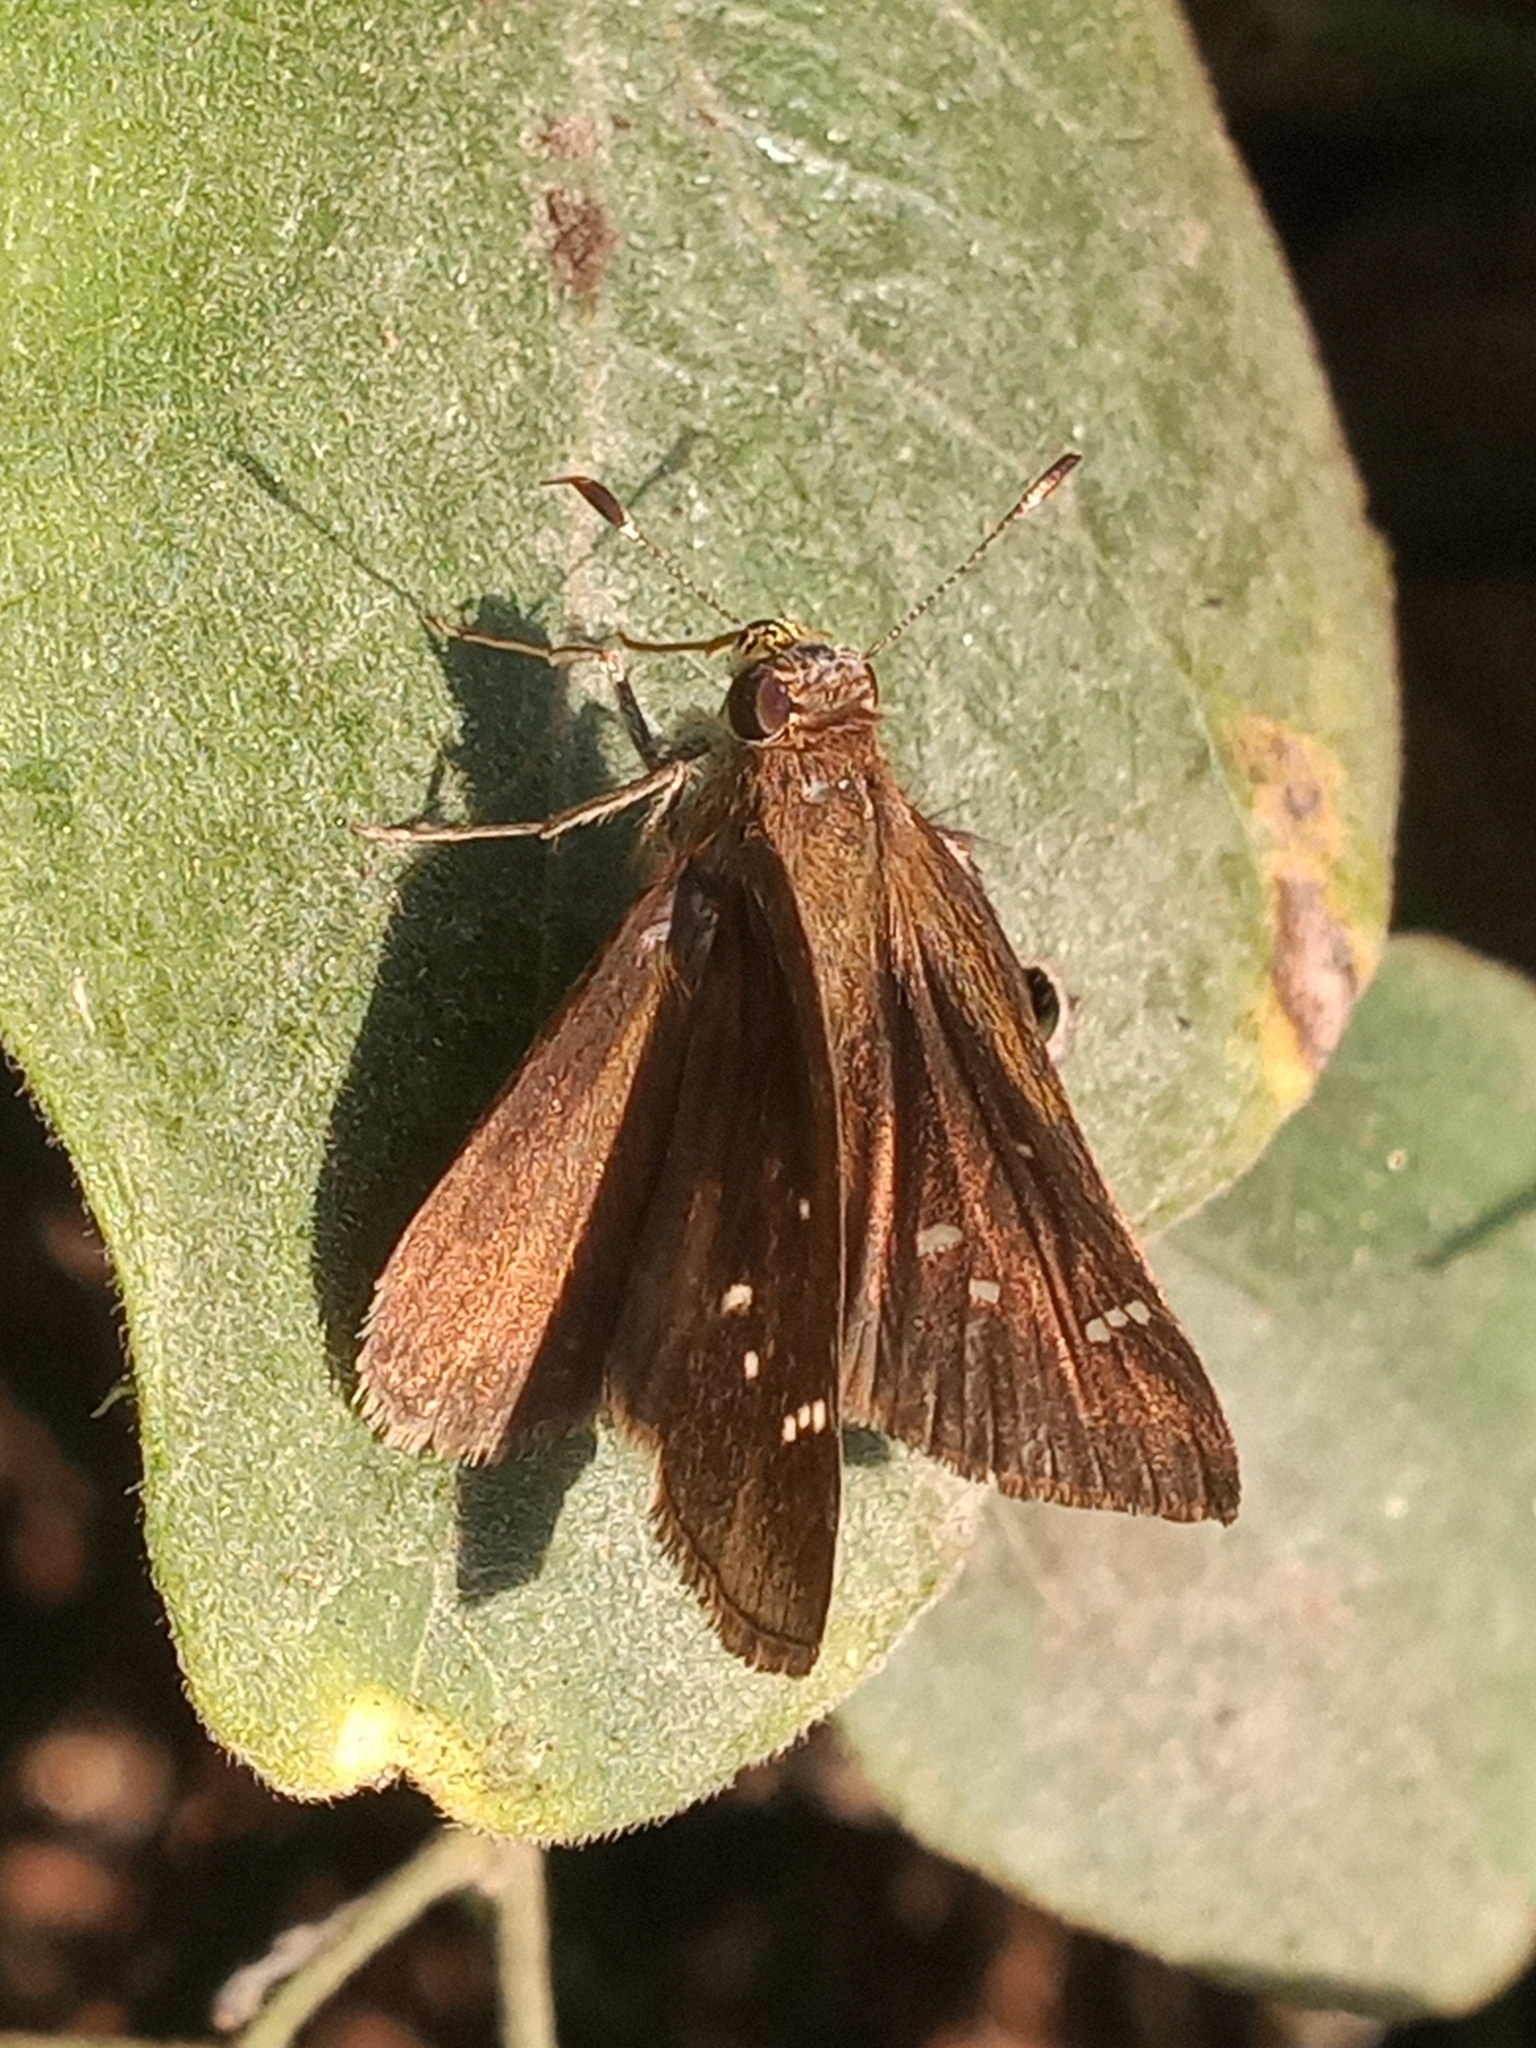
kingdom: Animalia
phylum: Arthropoda
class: Insecta
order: Lepidoptera
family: Hesperiidae
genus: Lerema
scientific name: Lerema
